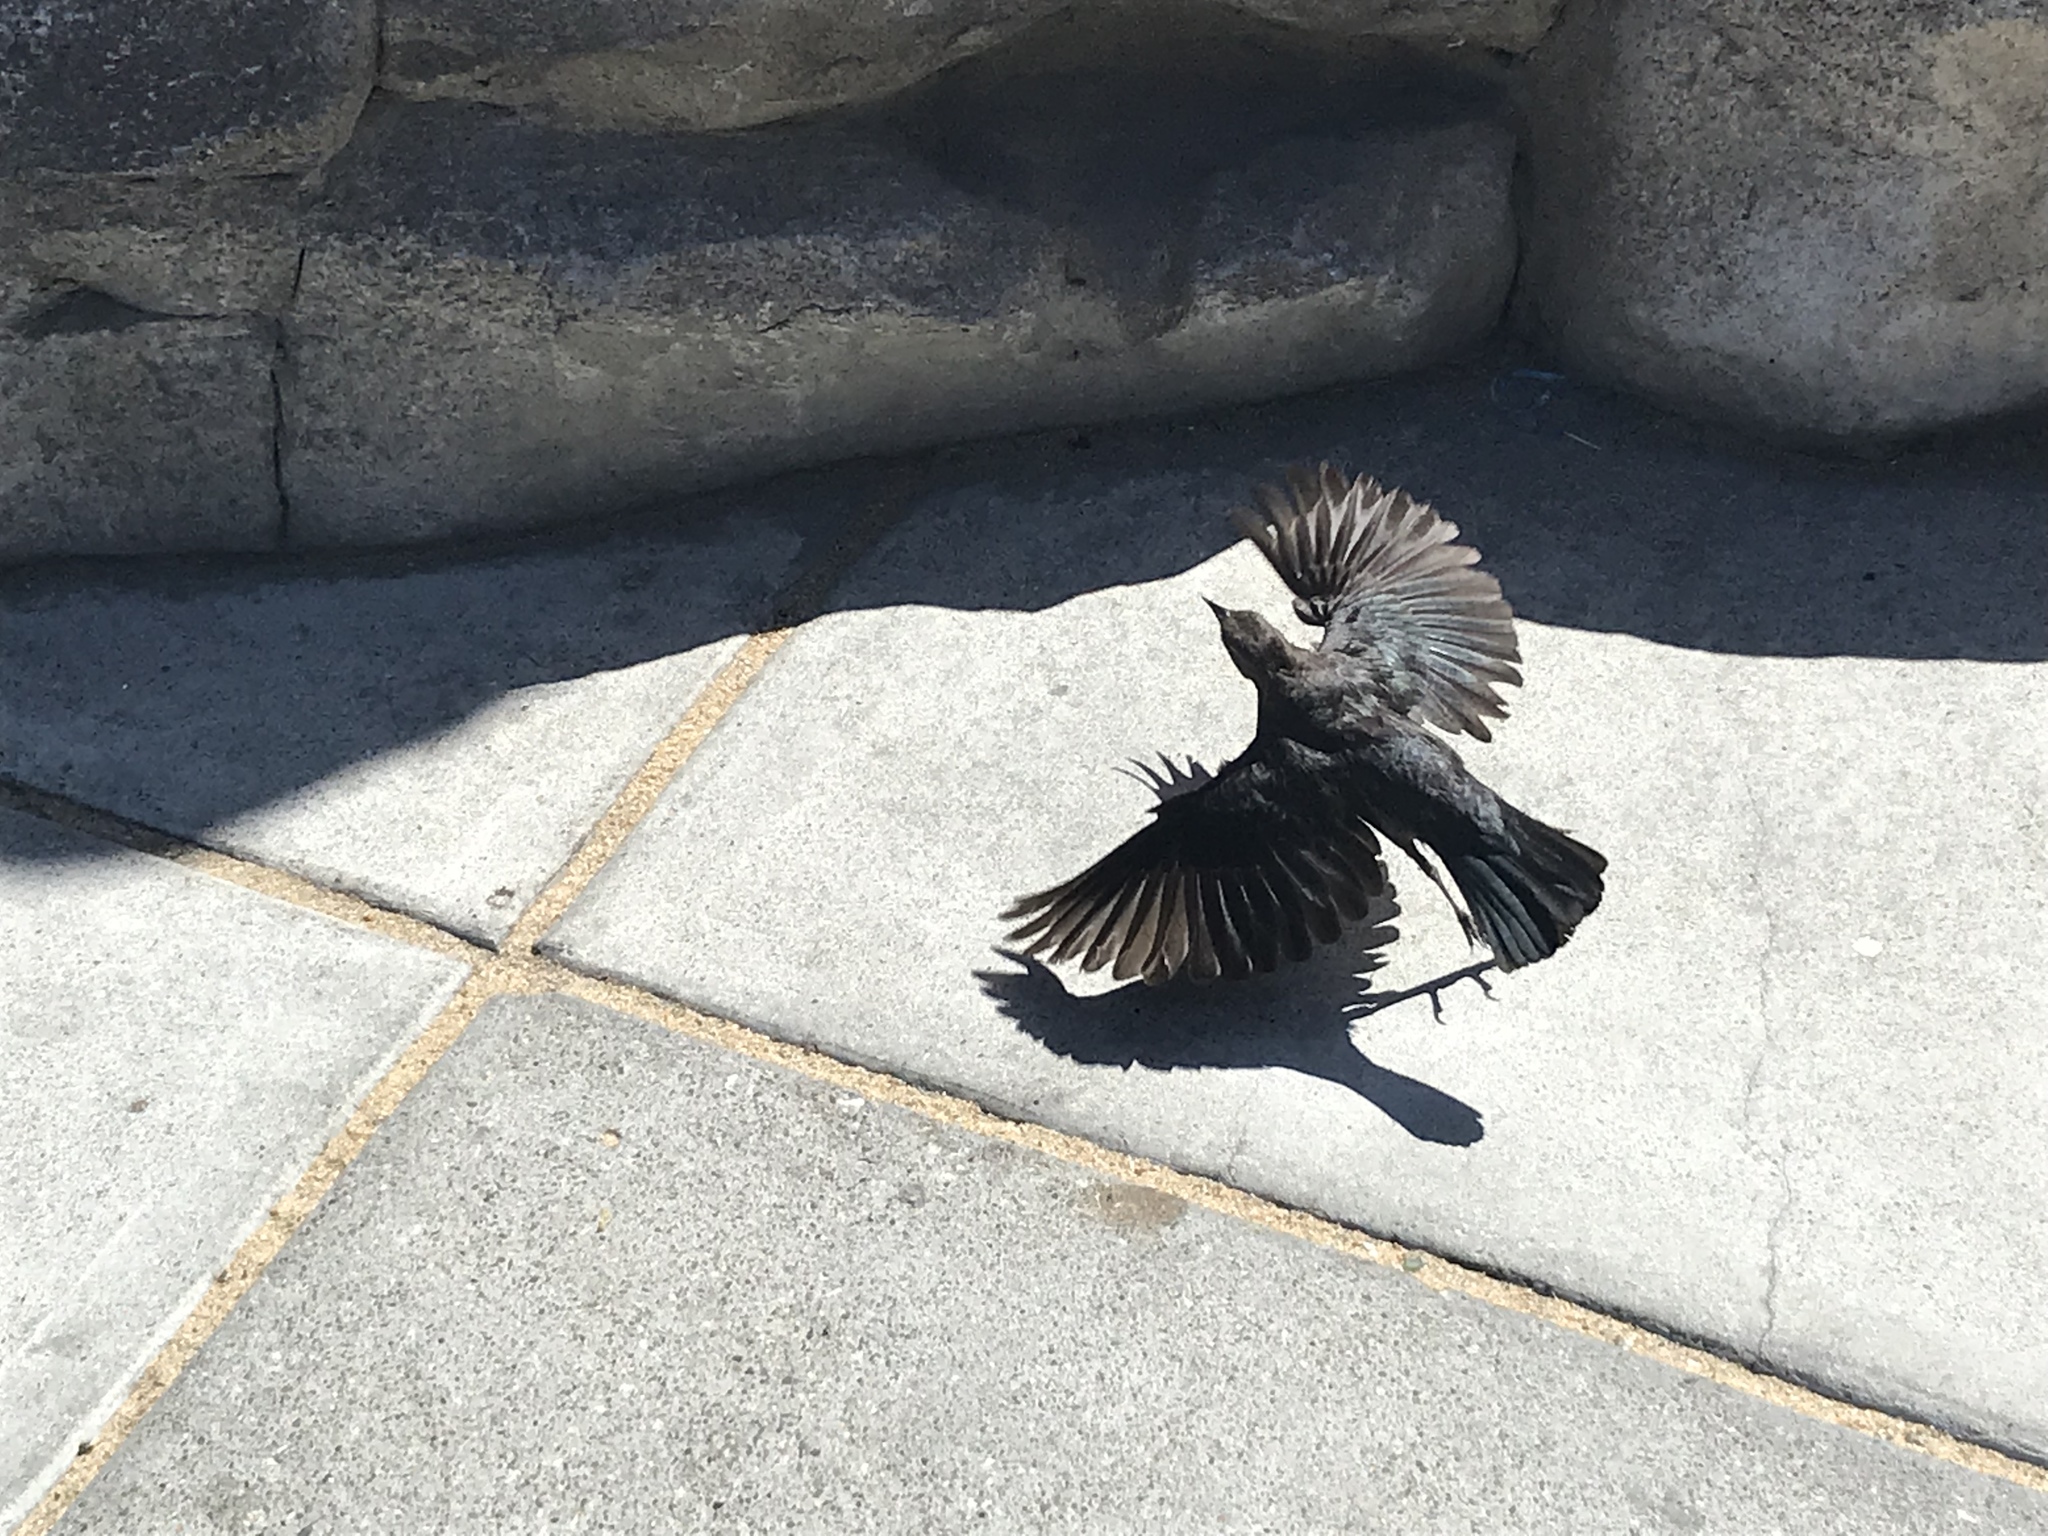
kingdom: Animalia
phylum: Chordata
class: Aves
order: Passeriformes
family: Icteridae
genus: Euphagus
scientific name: Euphagus cyanocephalus
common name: Brewer's blackbird
